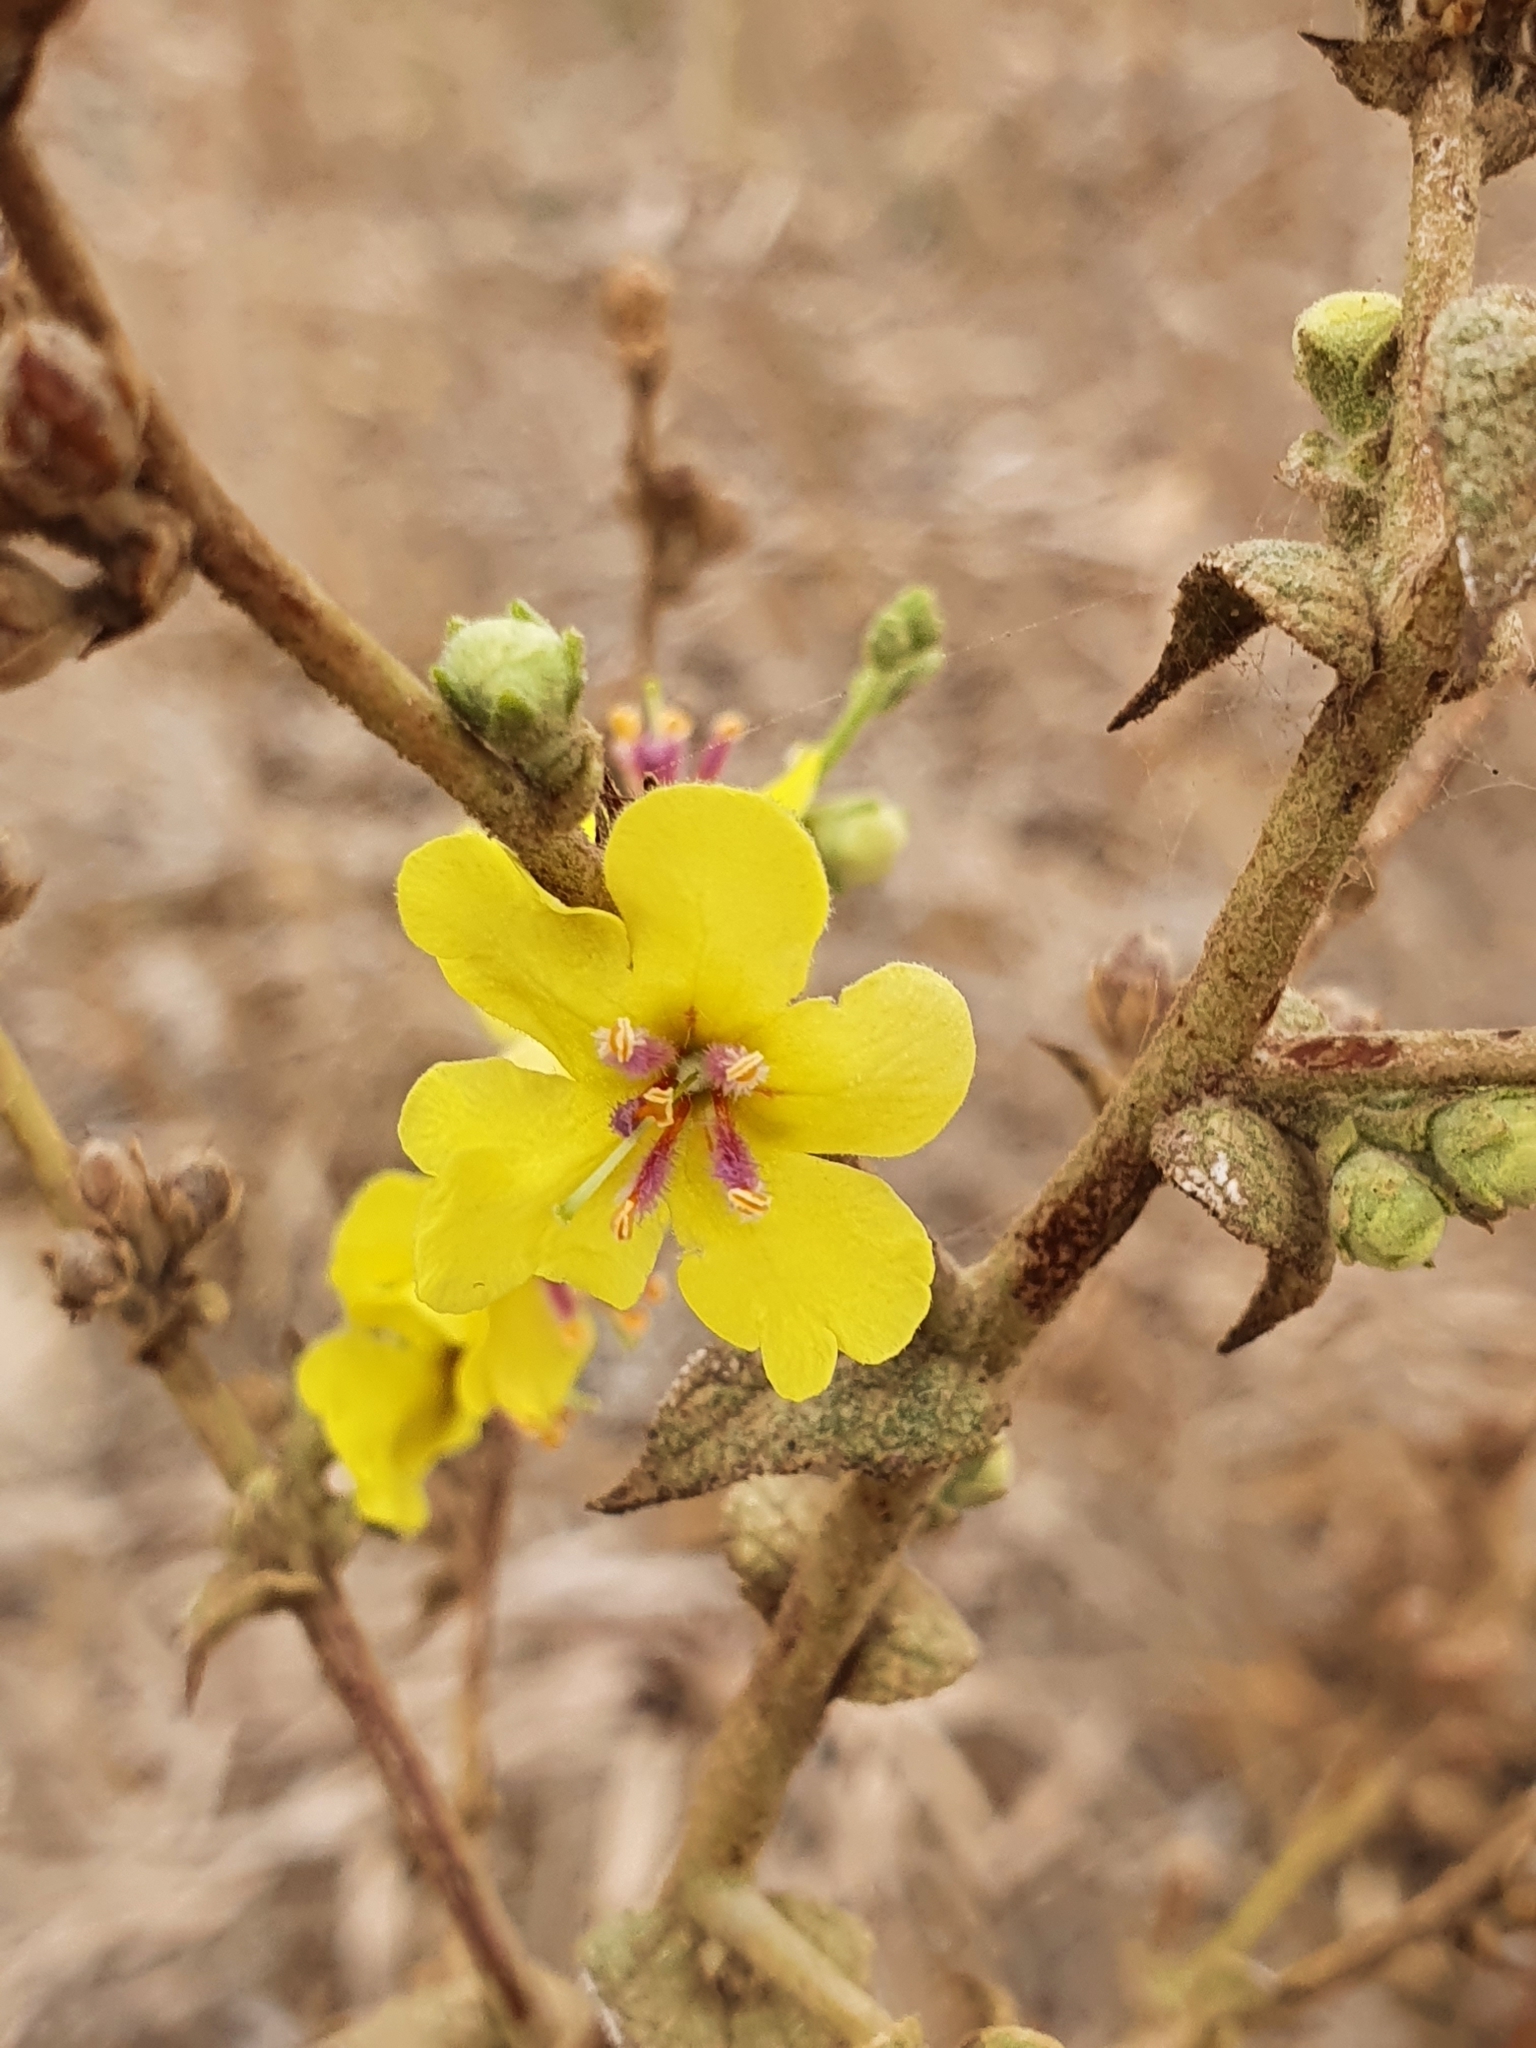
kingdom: Plantae
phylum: Tracheophyta
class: Magnoliopsida
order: Lamiales
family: Scrophulariaceae
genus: Verbascum
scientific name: Verbascum sinuatum
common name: Wavyleaf mullein
